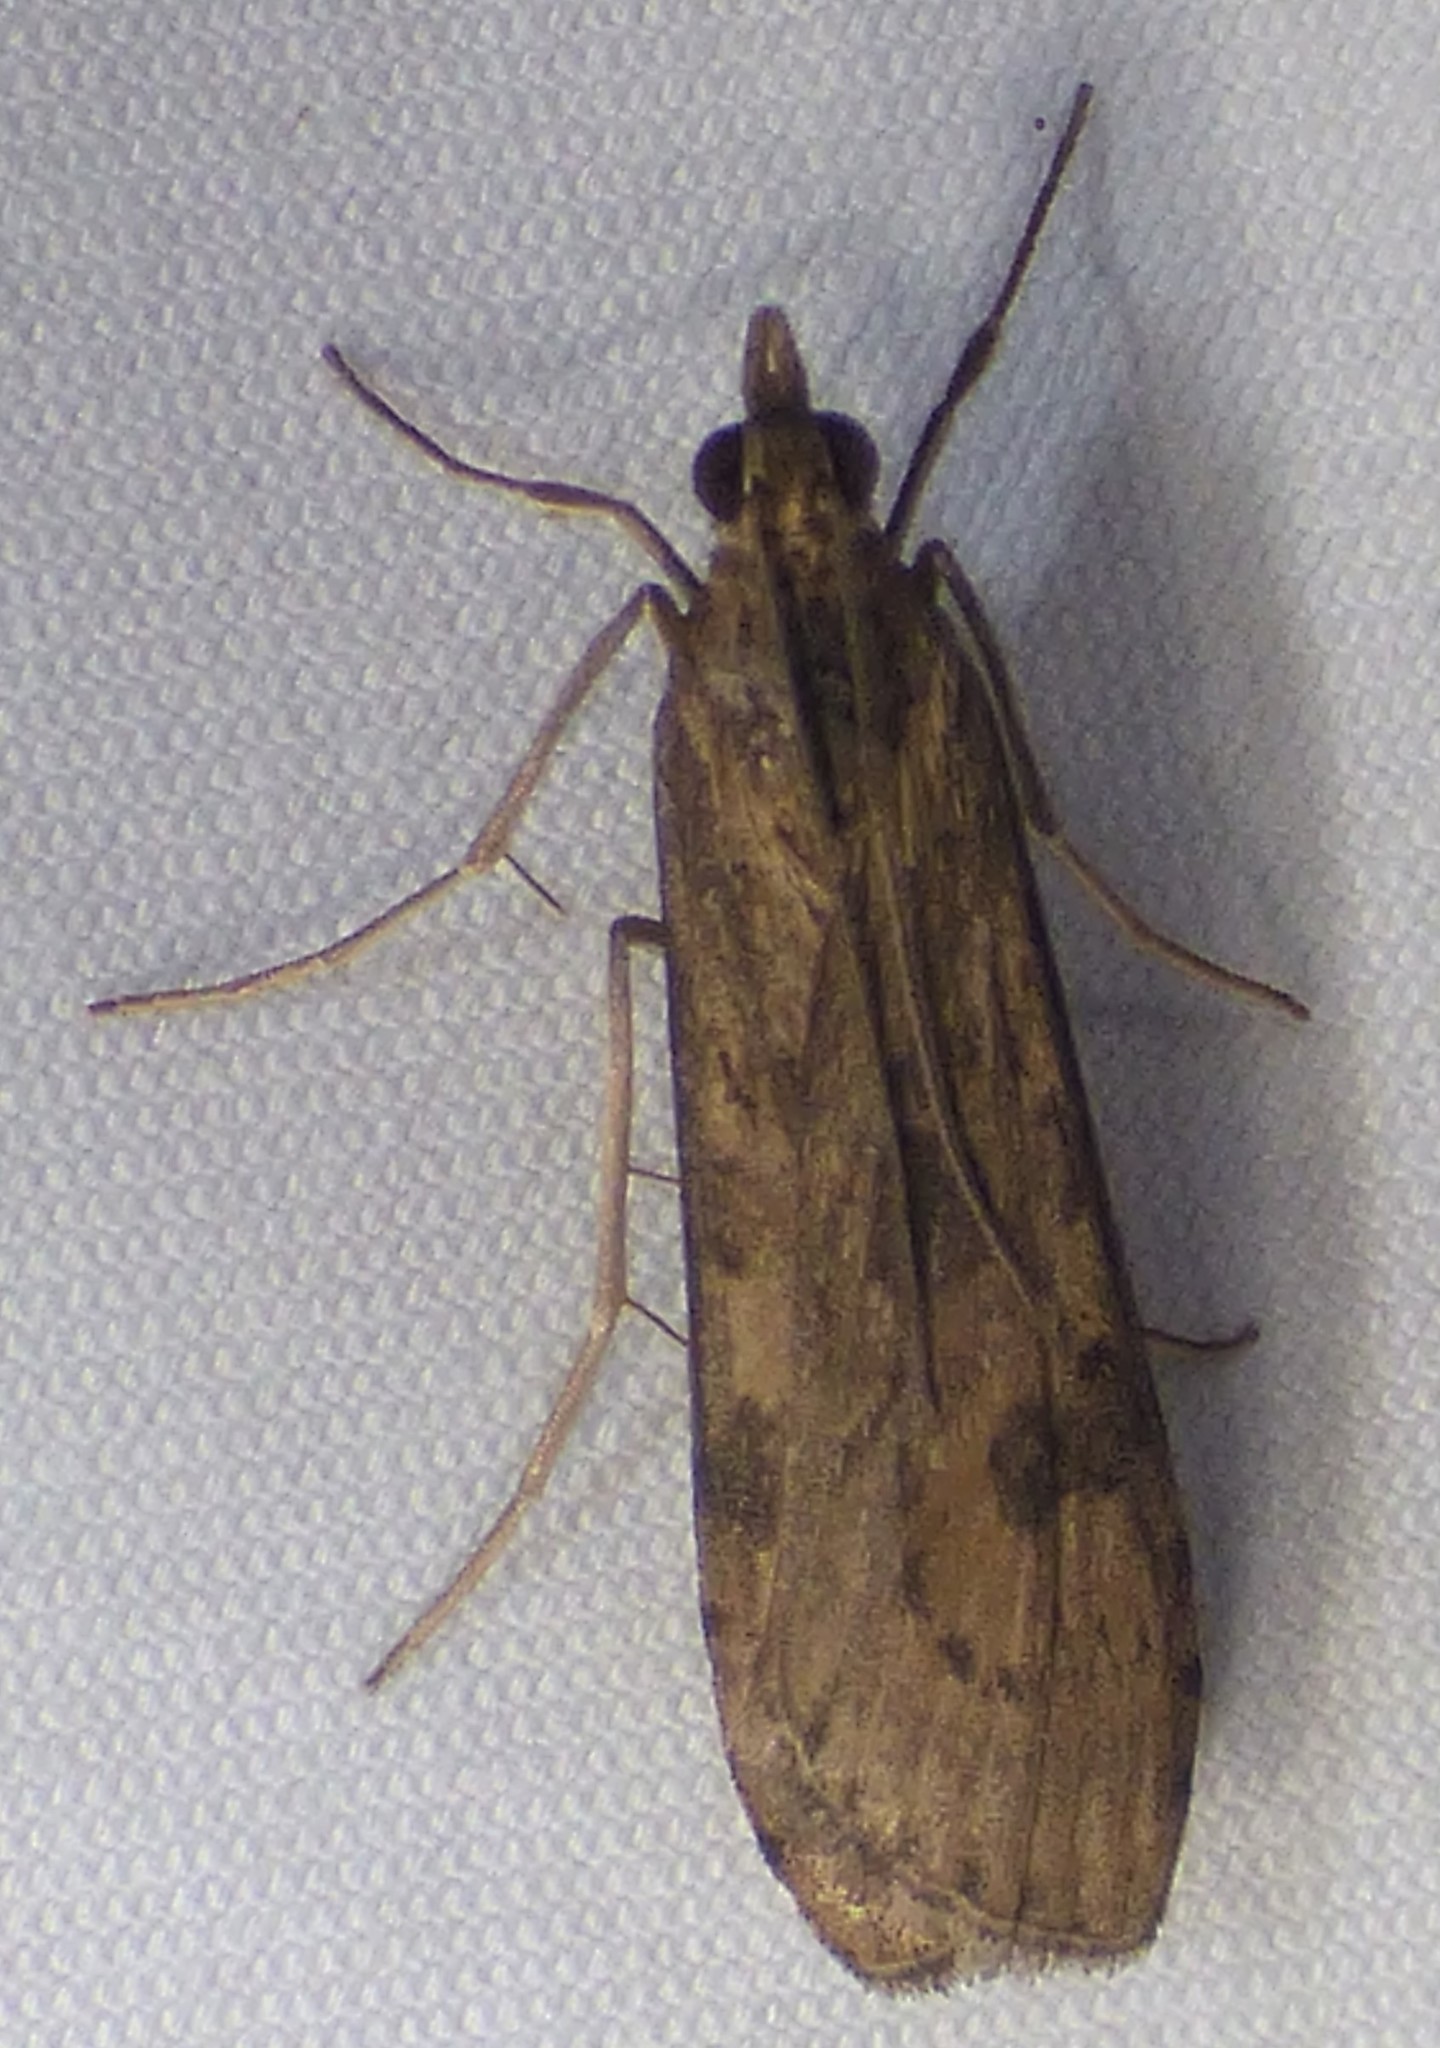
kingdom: Animalia
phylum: Arthropoda
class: Insecta
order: Lepidoptera
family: Crambidae
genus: Nomophila
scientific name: Nomophila nearctica
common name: American rush veneer
